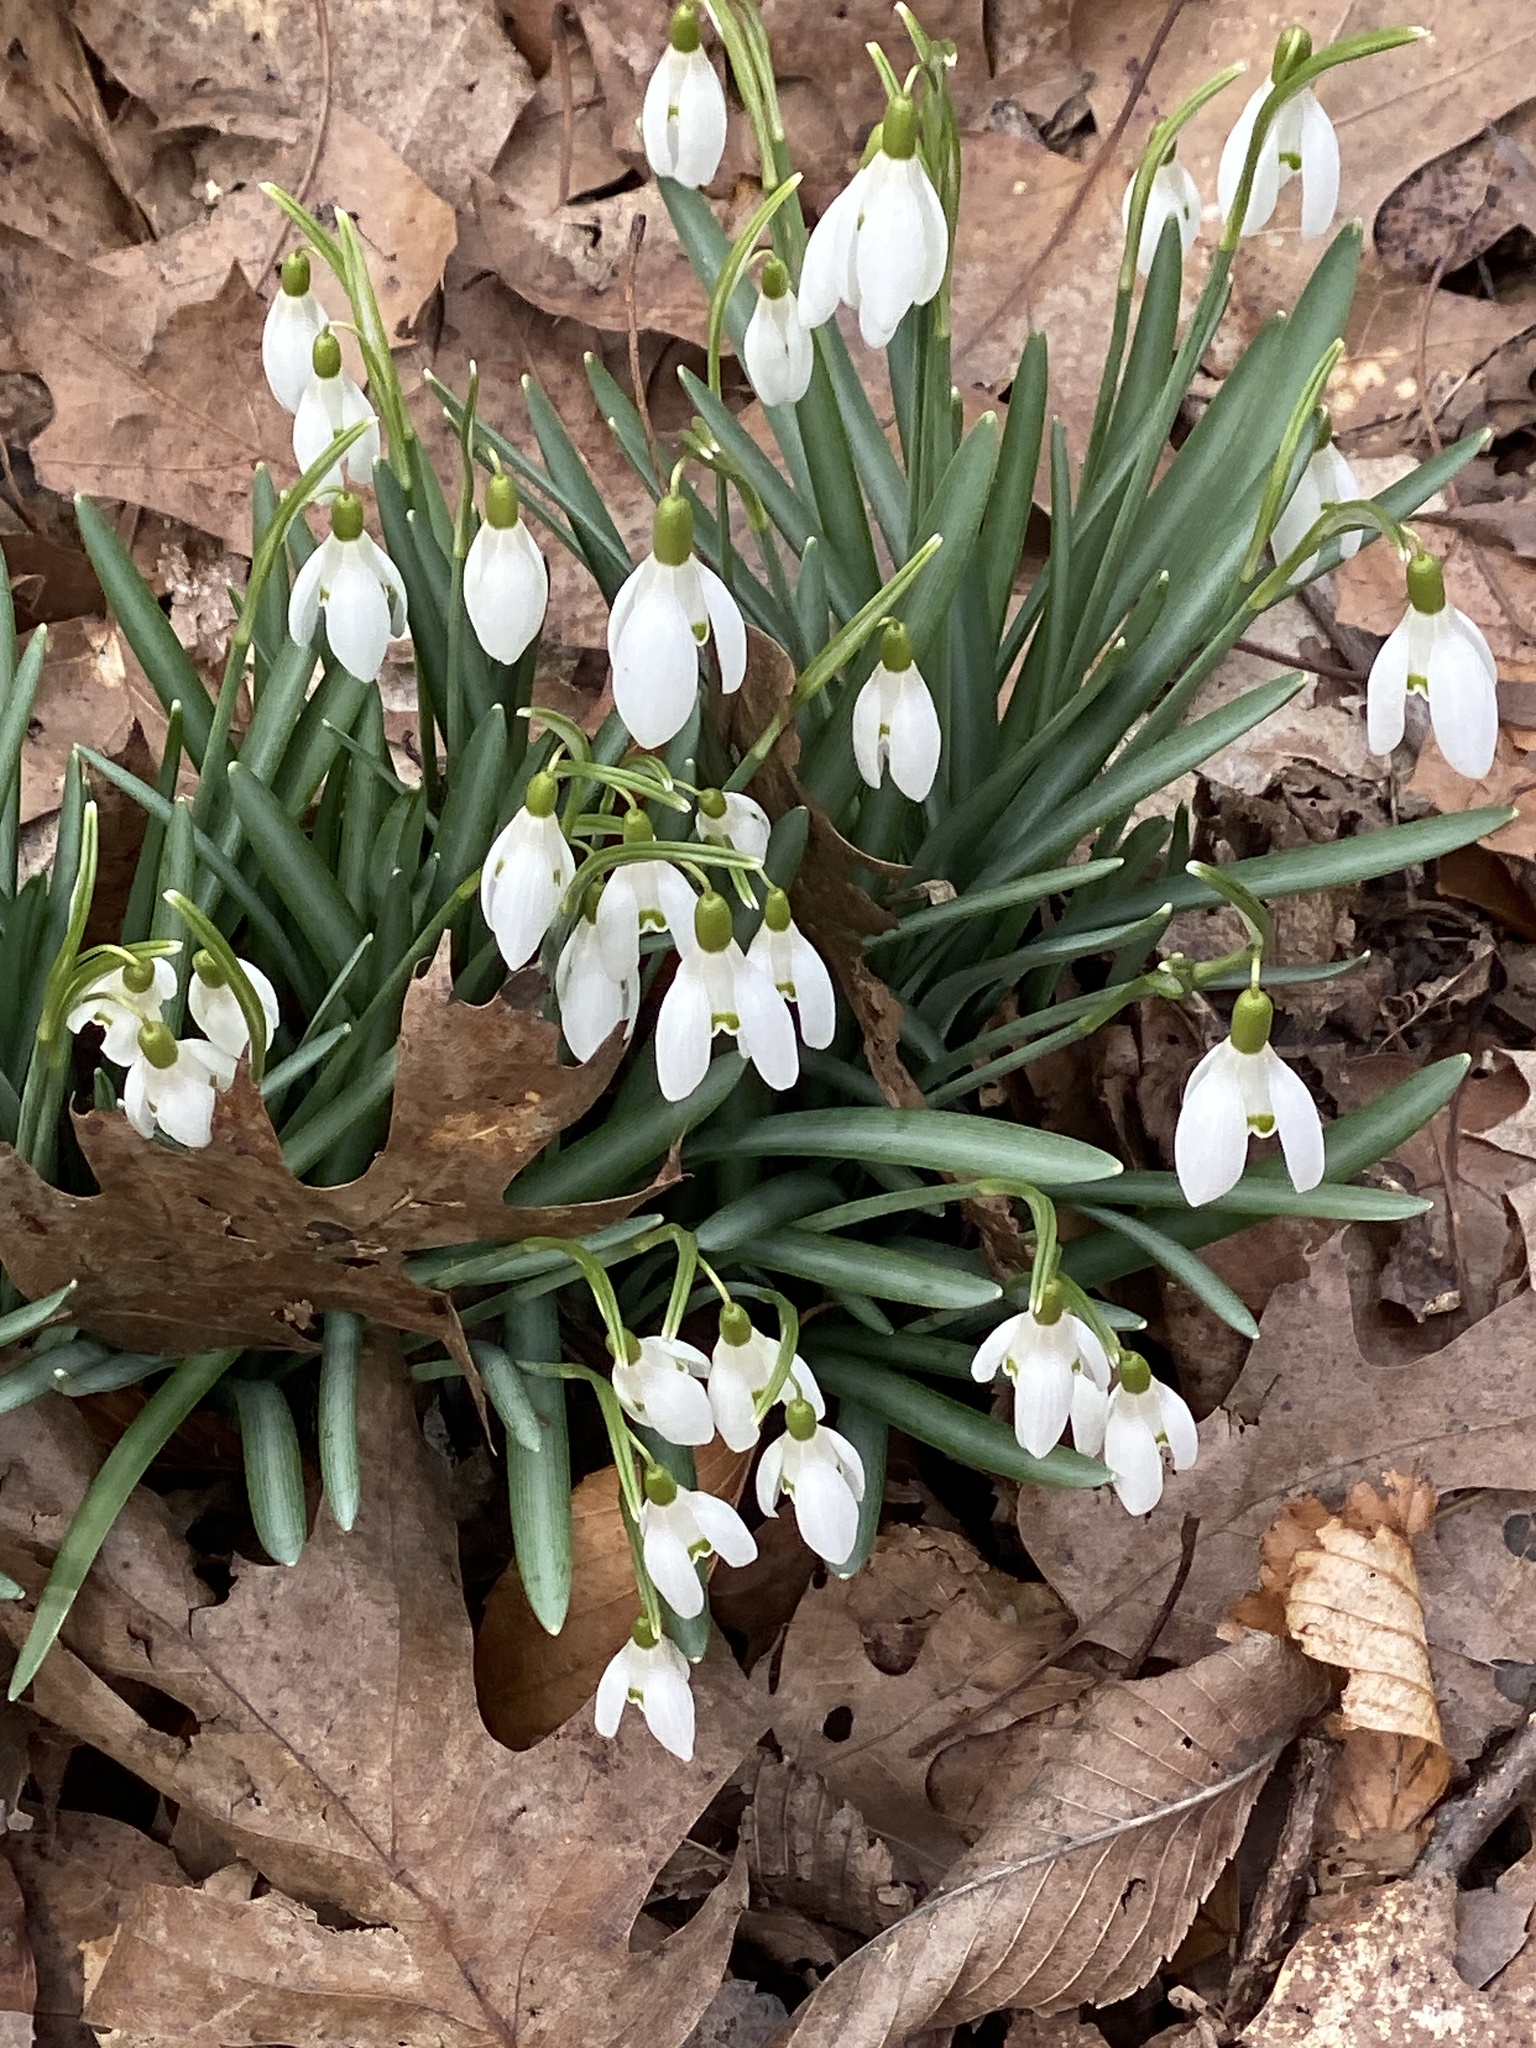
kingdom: Plantae
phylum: Tracheophyta
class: Liliopsida
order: Asparagales
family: Amaryllidaceae
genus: Galanthus
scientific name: Galanthus nivalis
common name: Snowdrop
